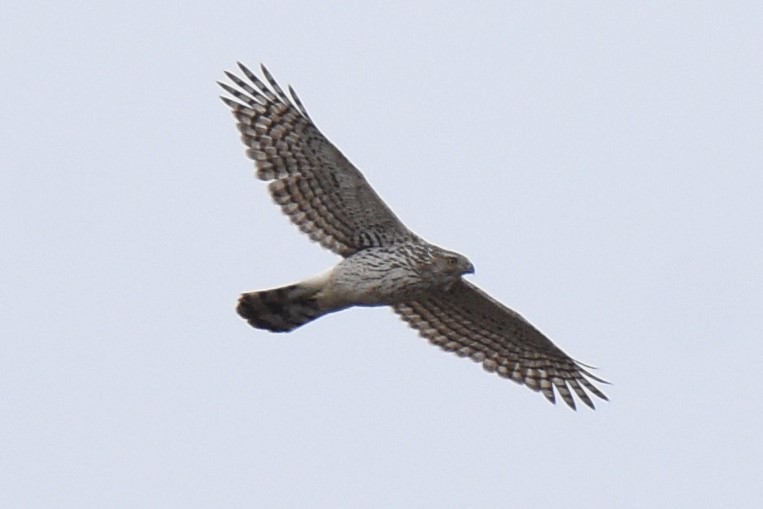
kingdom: Animalia
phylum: Chordata
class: Aves
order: Accipitriformes
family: Accipitridae
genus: Accipiter
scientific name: Accipiter cooperii
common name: Cooper's hawk
